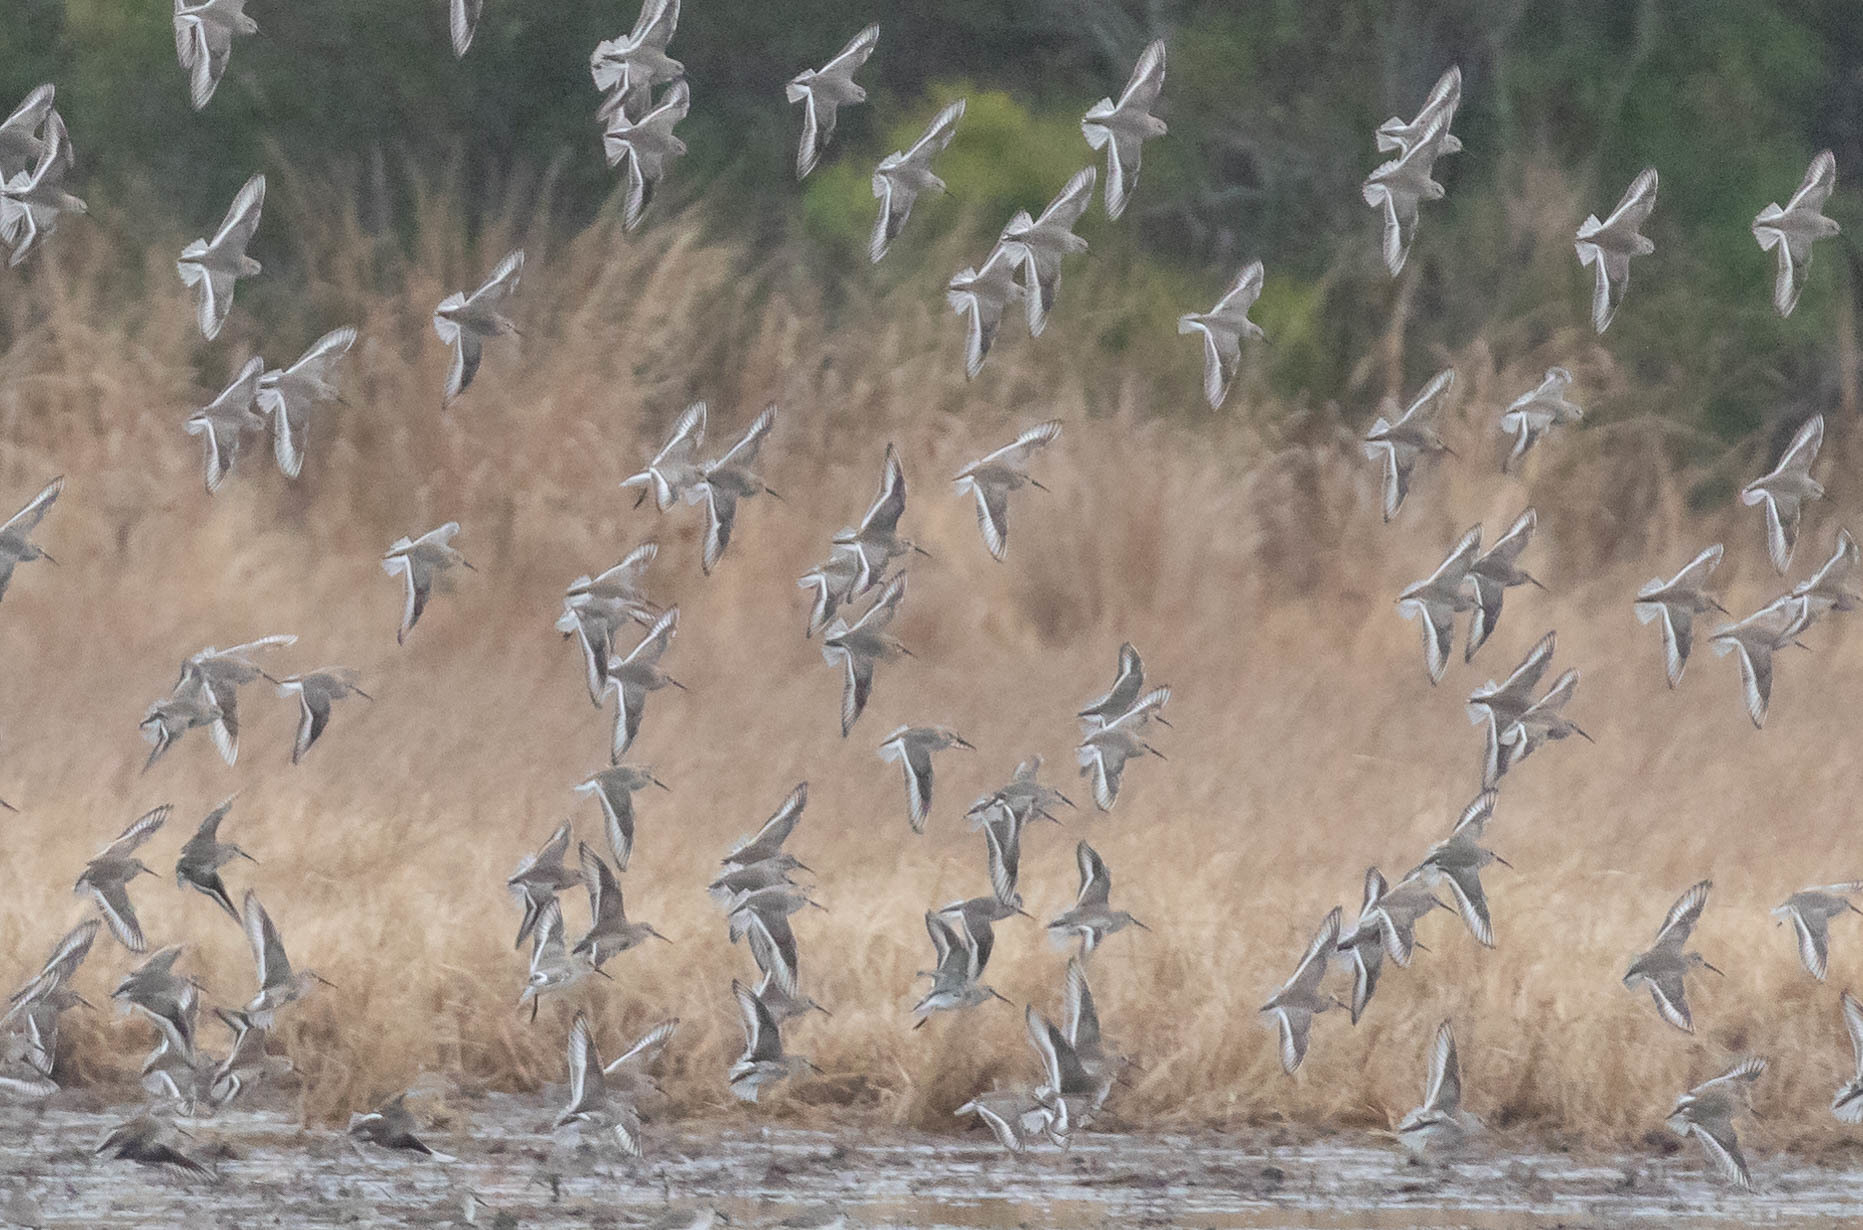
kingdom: Animalia
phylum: Chordata
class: Aves
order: Charadriiformes
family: Scolopacidae
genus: Calidris
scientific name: Calidris alpina
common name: Dunlin
